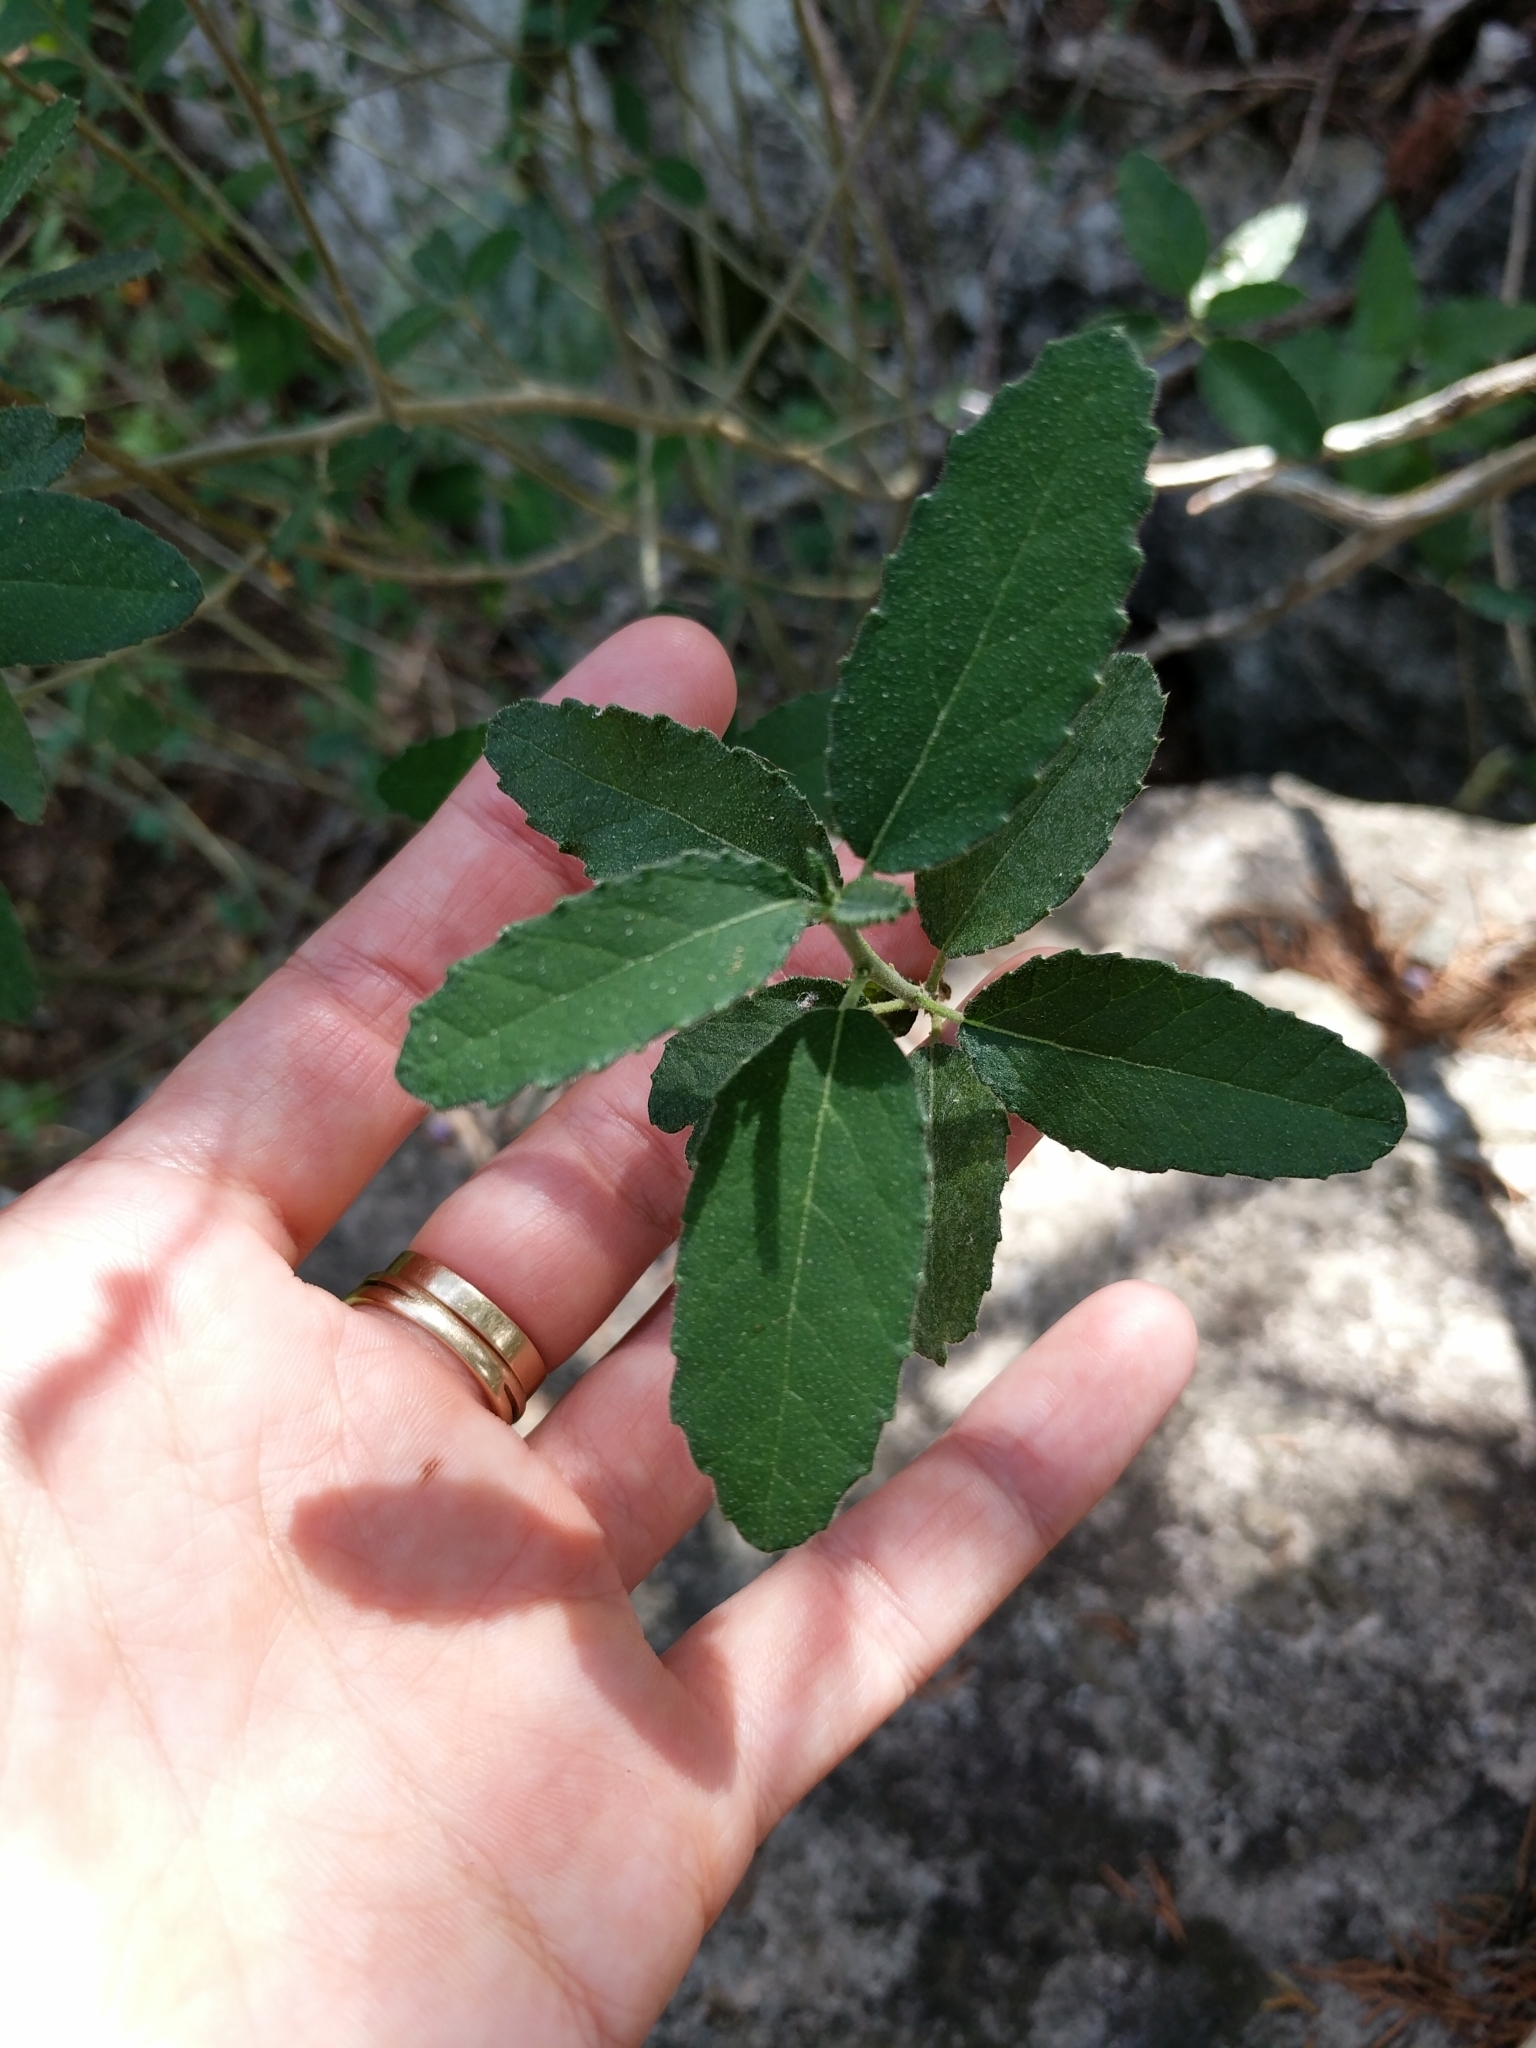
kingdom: Plantae
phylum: Tracheophyta
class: Magnoliopsida
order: Malpighiales
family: Euphorbiaceae
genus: Bernardia
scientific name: Bernardia myricifolia
